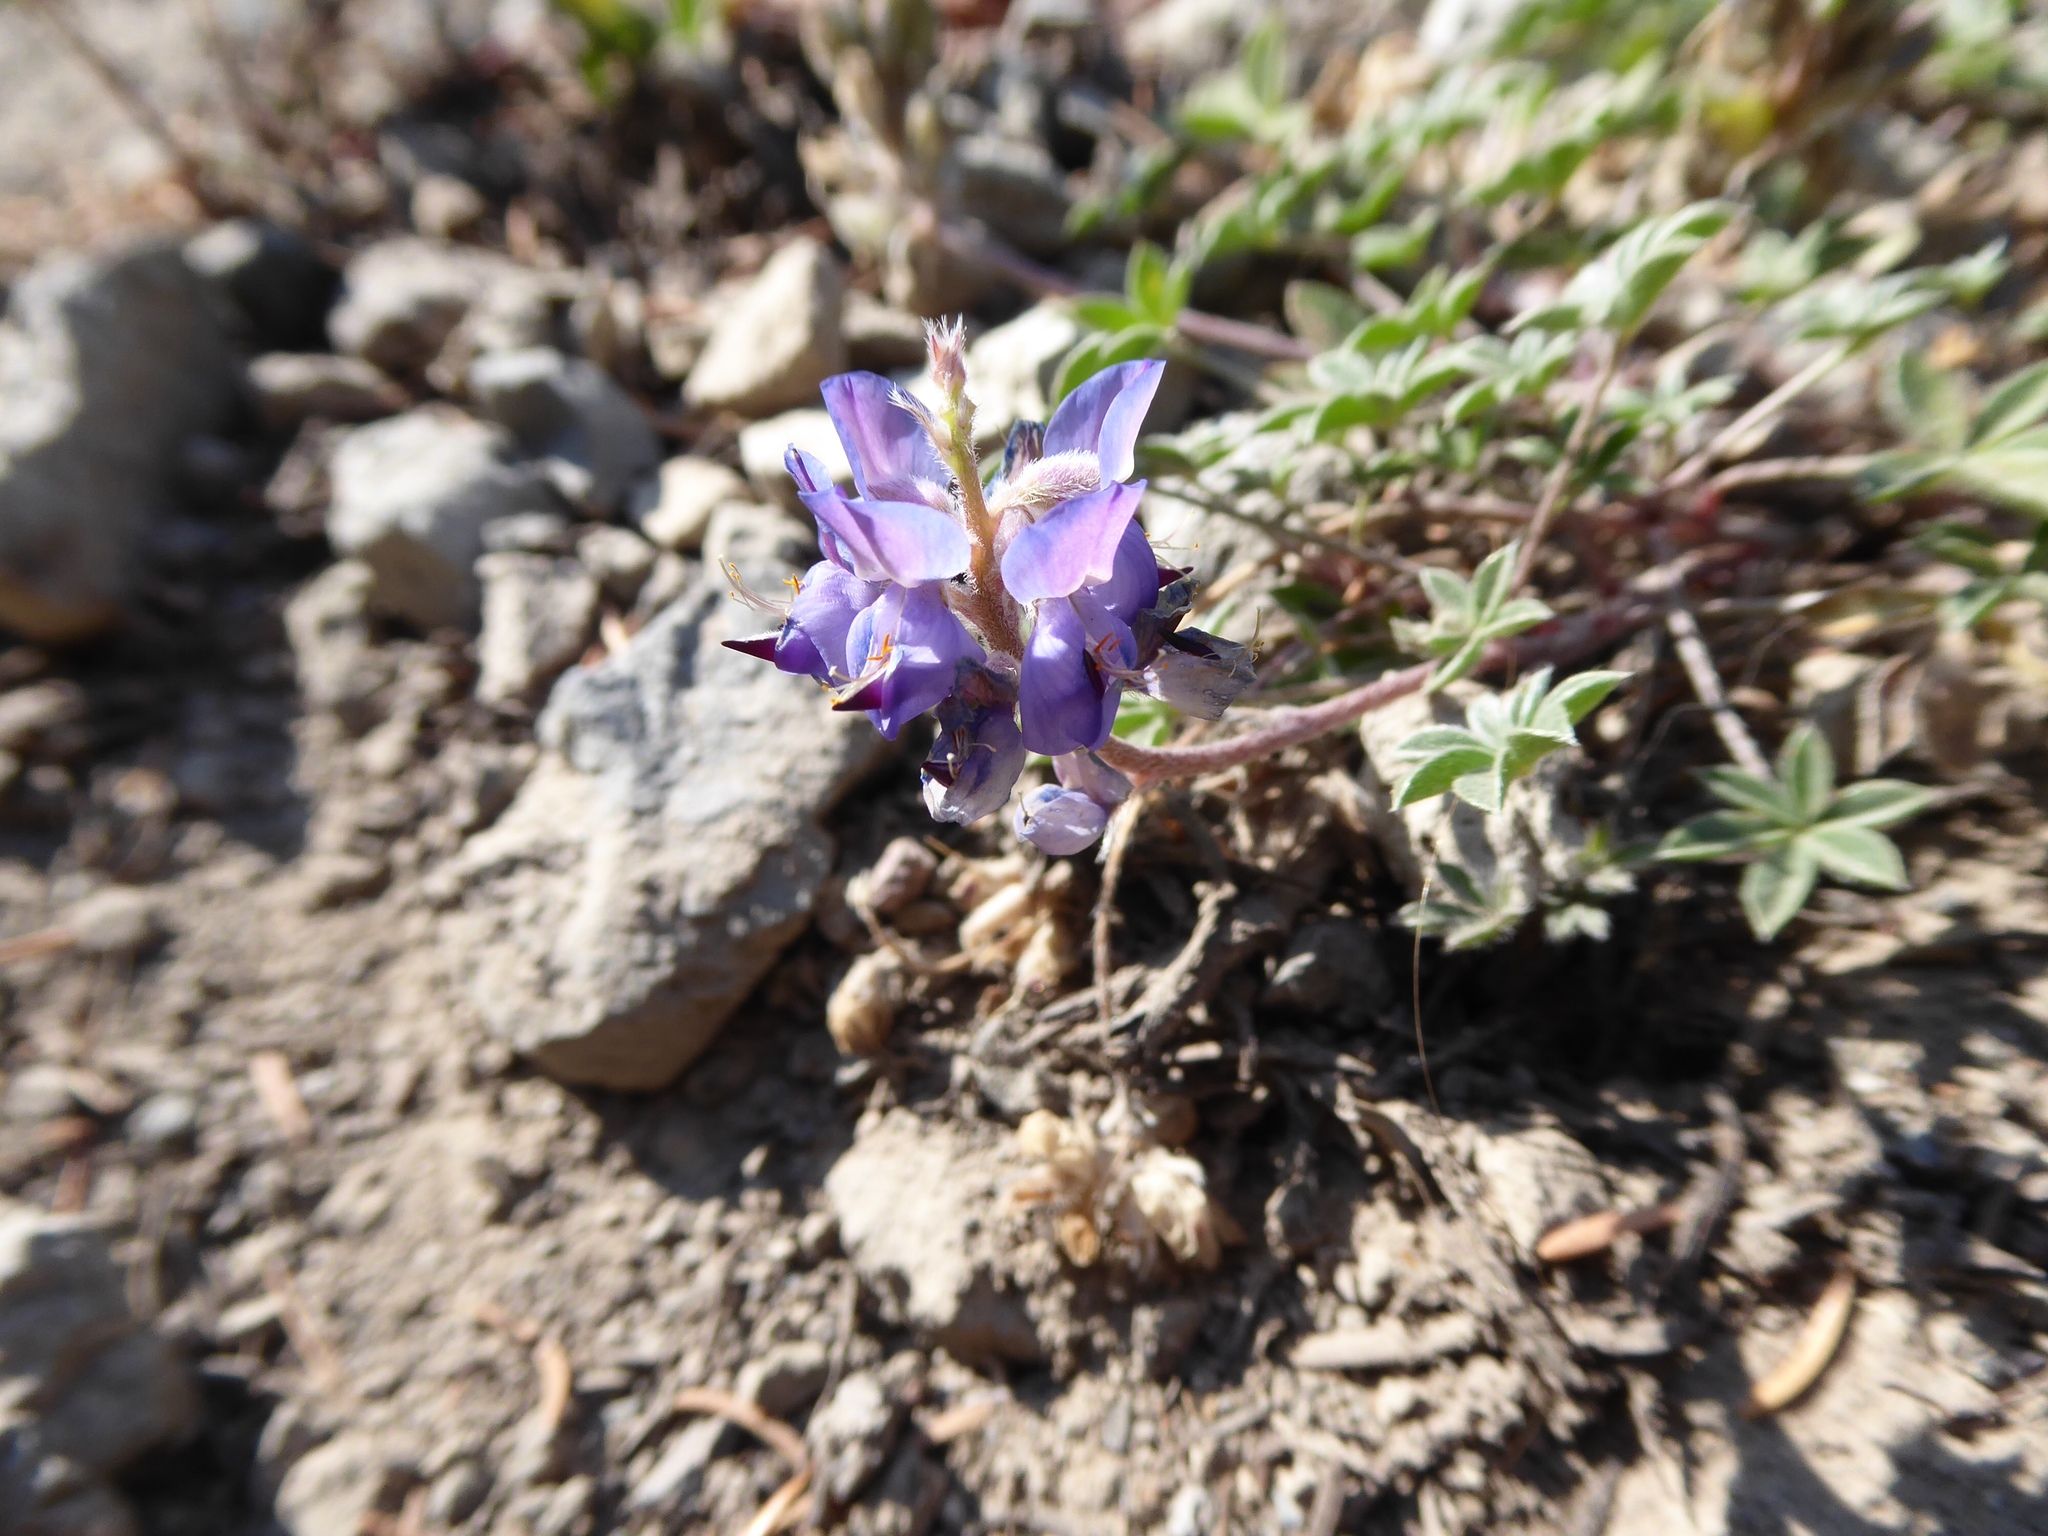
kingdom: Plantae
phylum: Tracheophyta
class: Magnoliopsida
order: Fabales
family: Fabaceae
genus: Lupinus
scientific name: Lupinus sellulus
